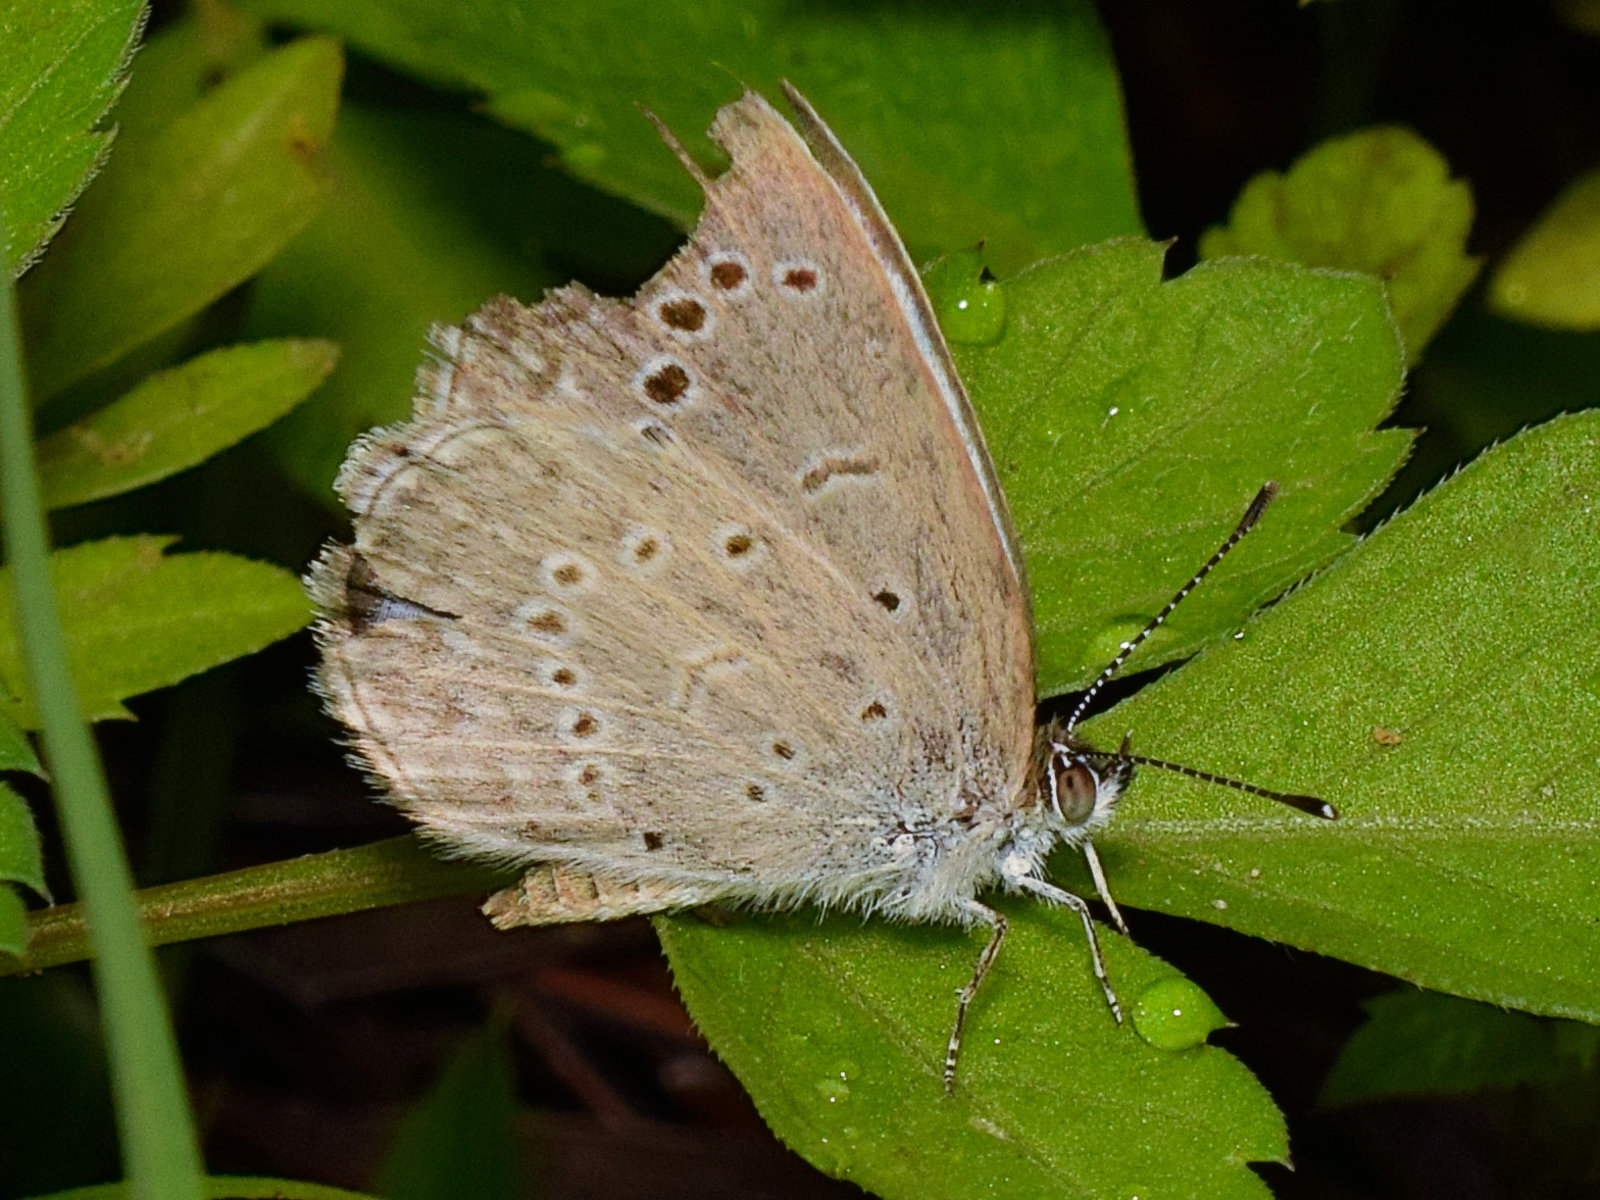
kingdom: Animalia
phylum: Arthropoda
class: Insecta
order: Lepidoptera
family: Lycaenidae
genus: Pseudozizeeria
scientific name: Pseudozizeeria maha
